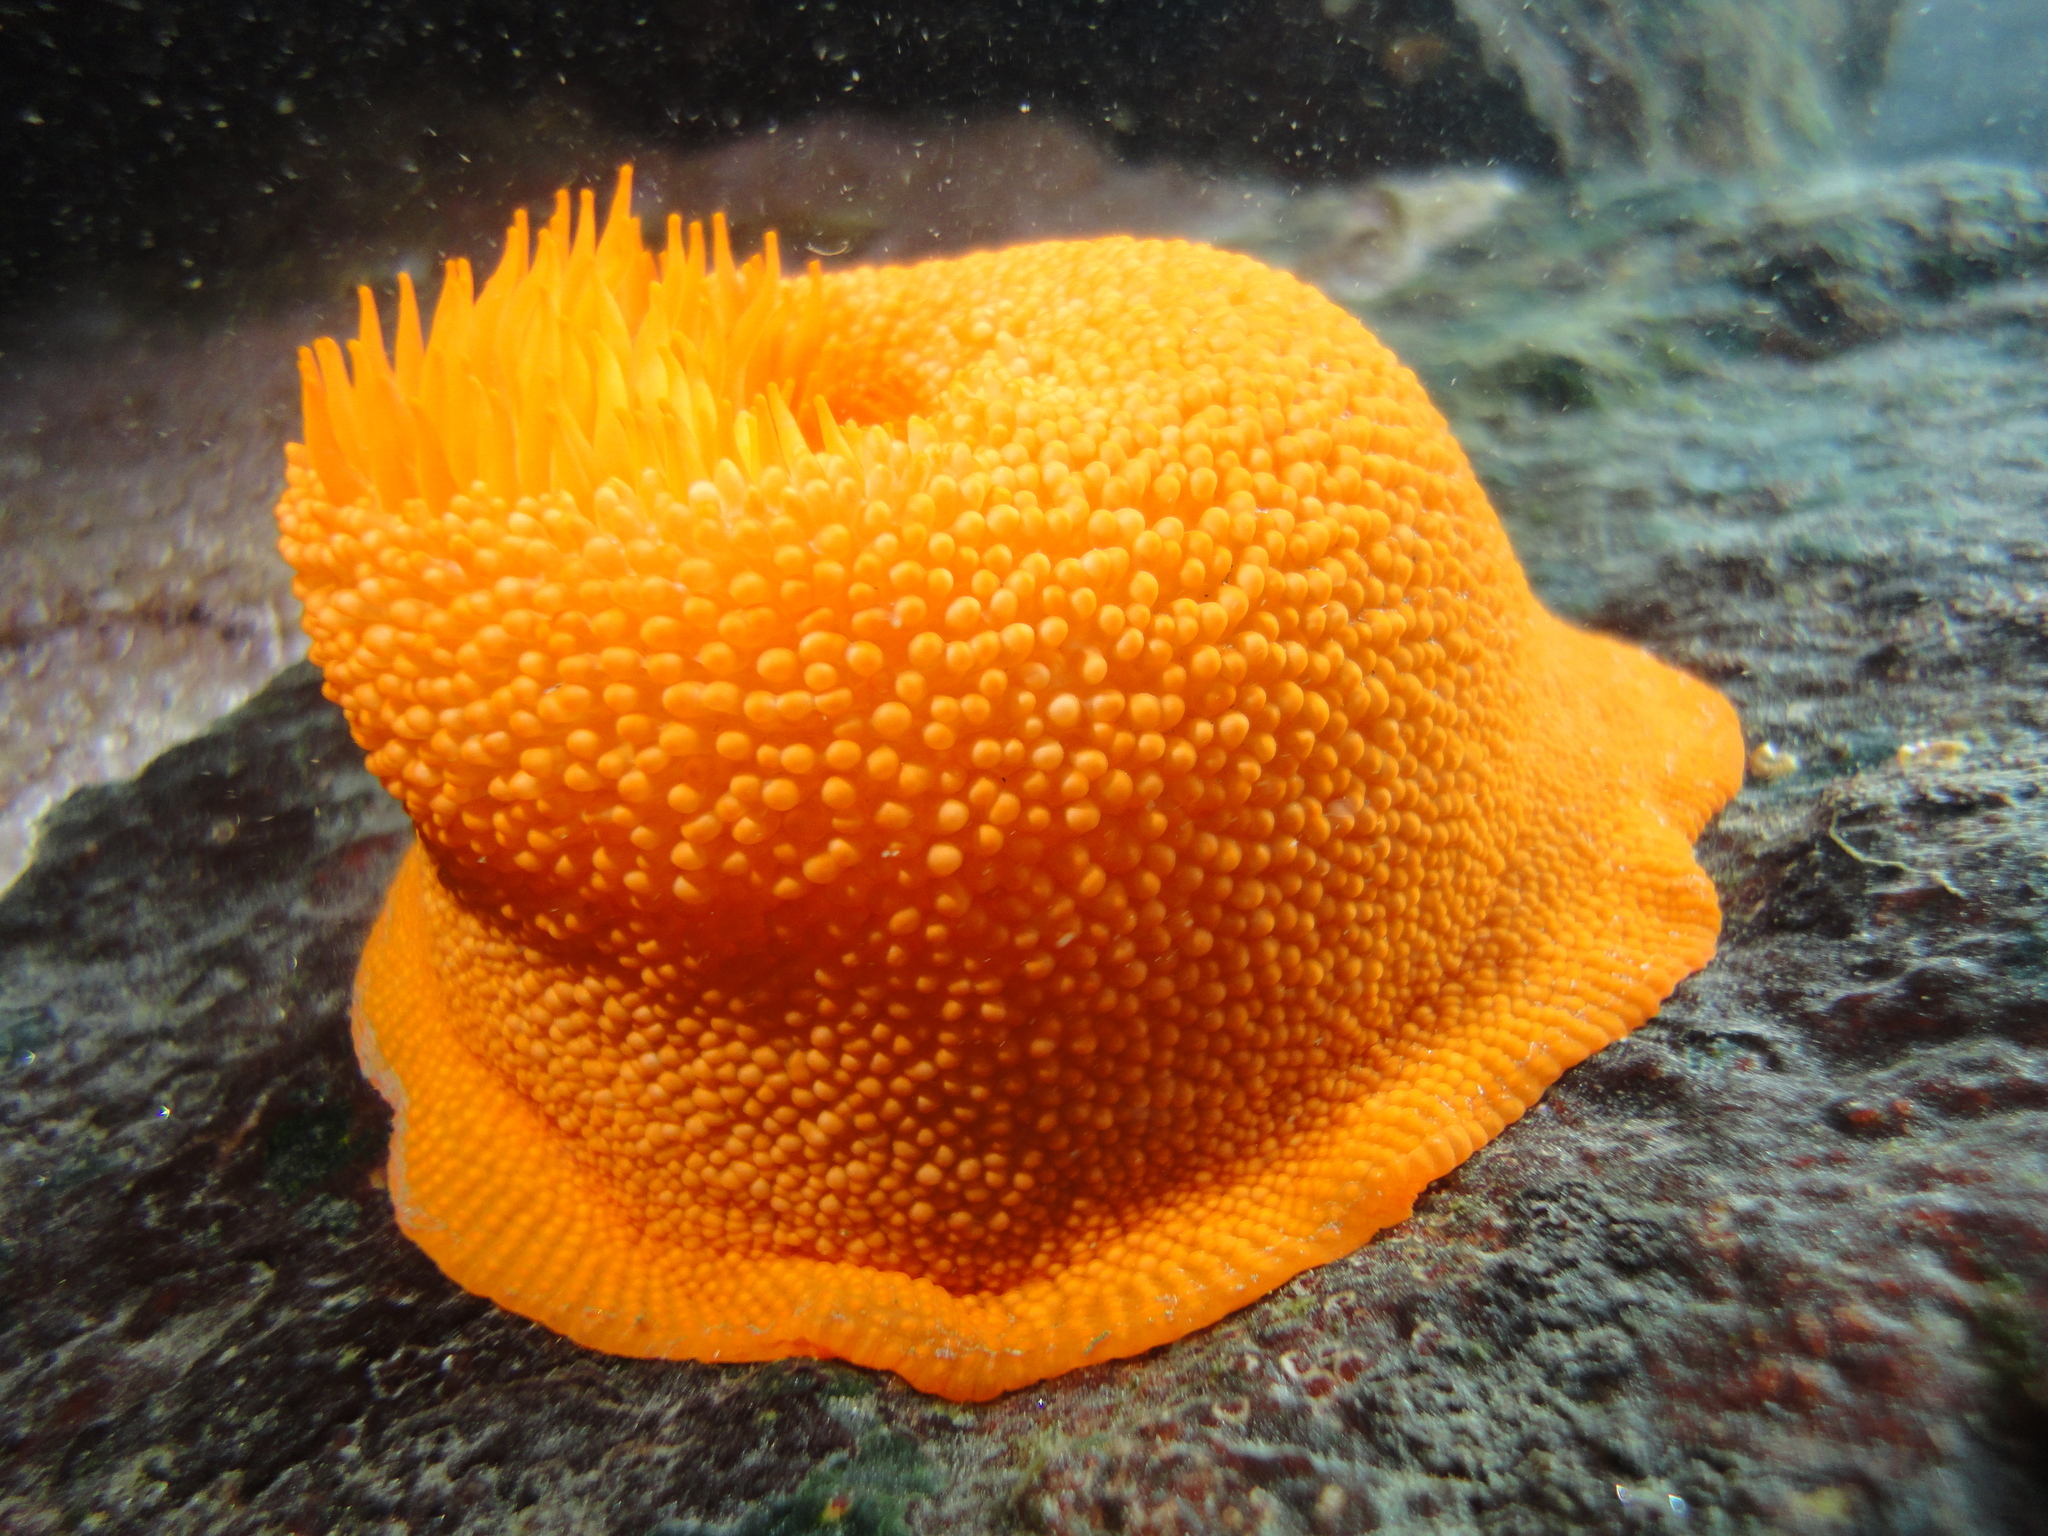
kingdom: Animalia
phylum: Cnidaria
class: Anthozoa
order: Actiniaria
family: Actiniidae
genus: Phymanthea
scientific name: Phymanthea pluvia
